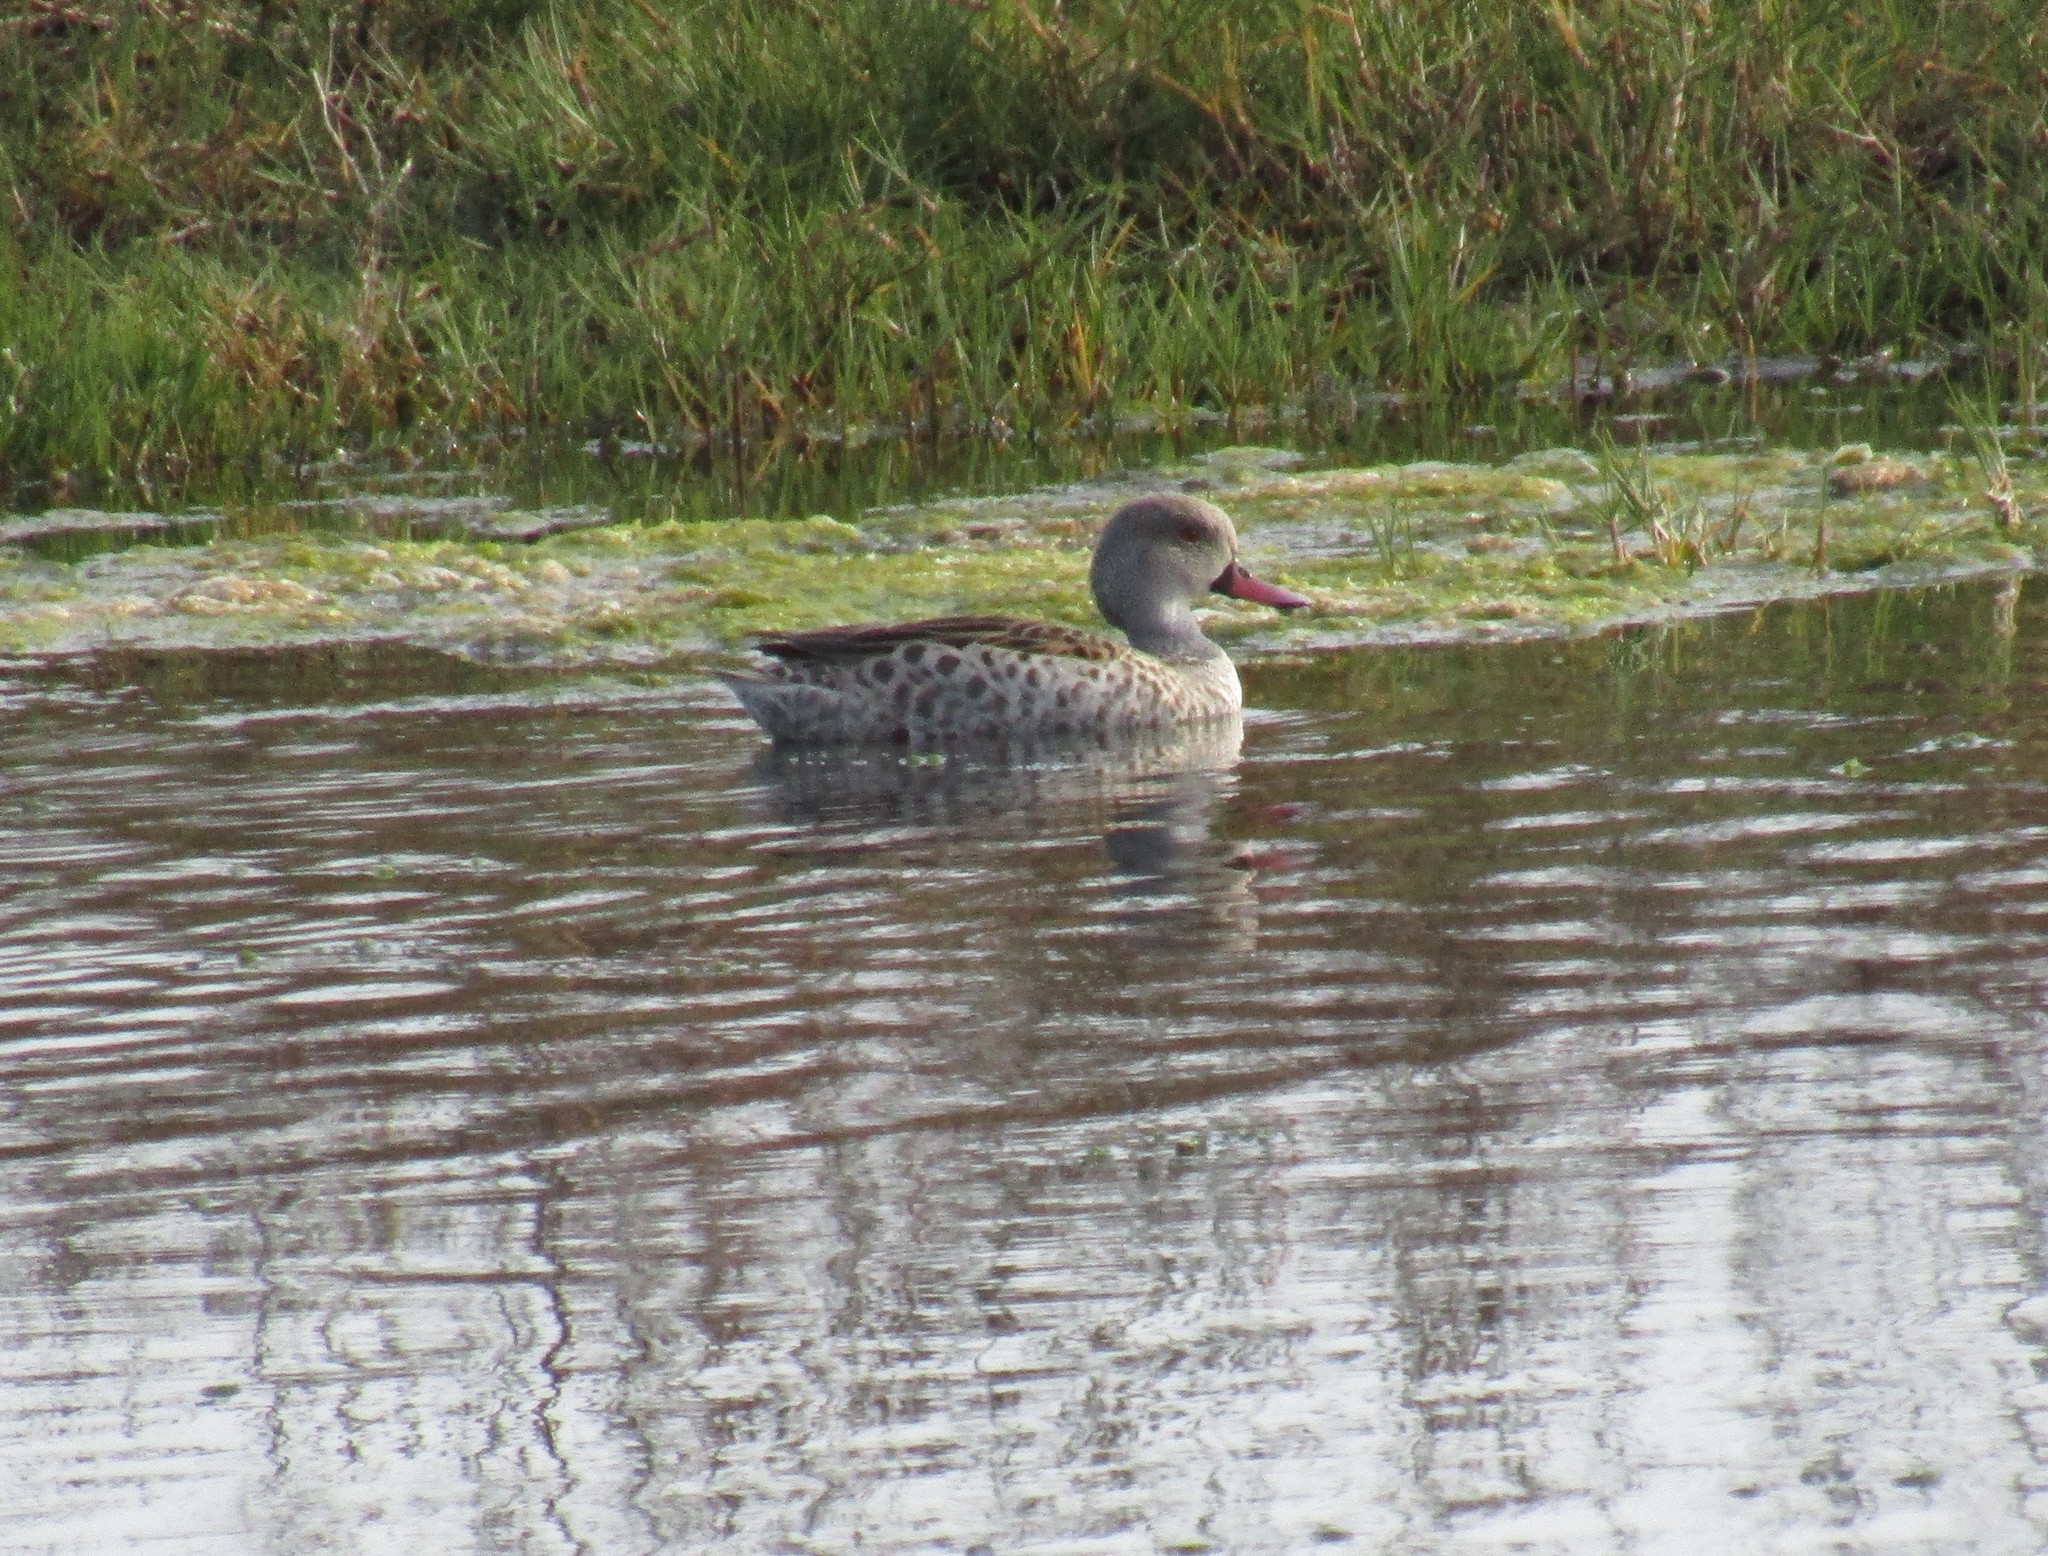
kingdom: Animalia
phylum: Chordata
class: Aves
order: Anseriformes
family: Anatidae
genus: Anas
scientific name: Anas capensis
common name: Cape teal
